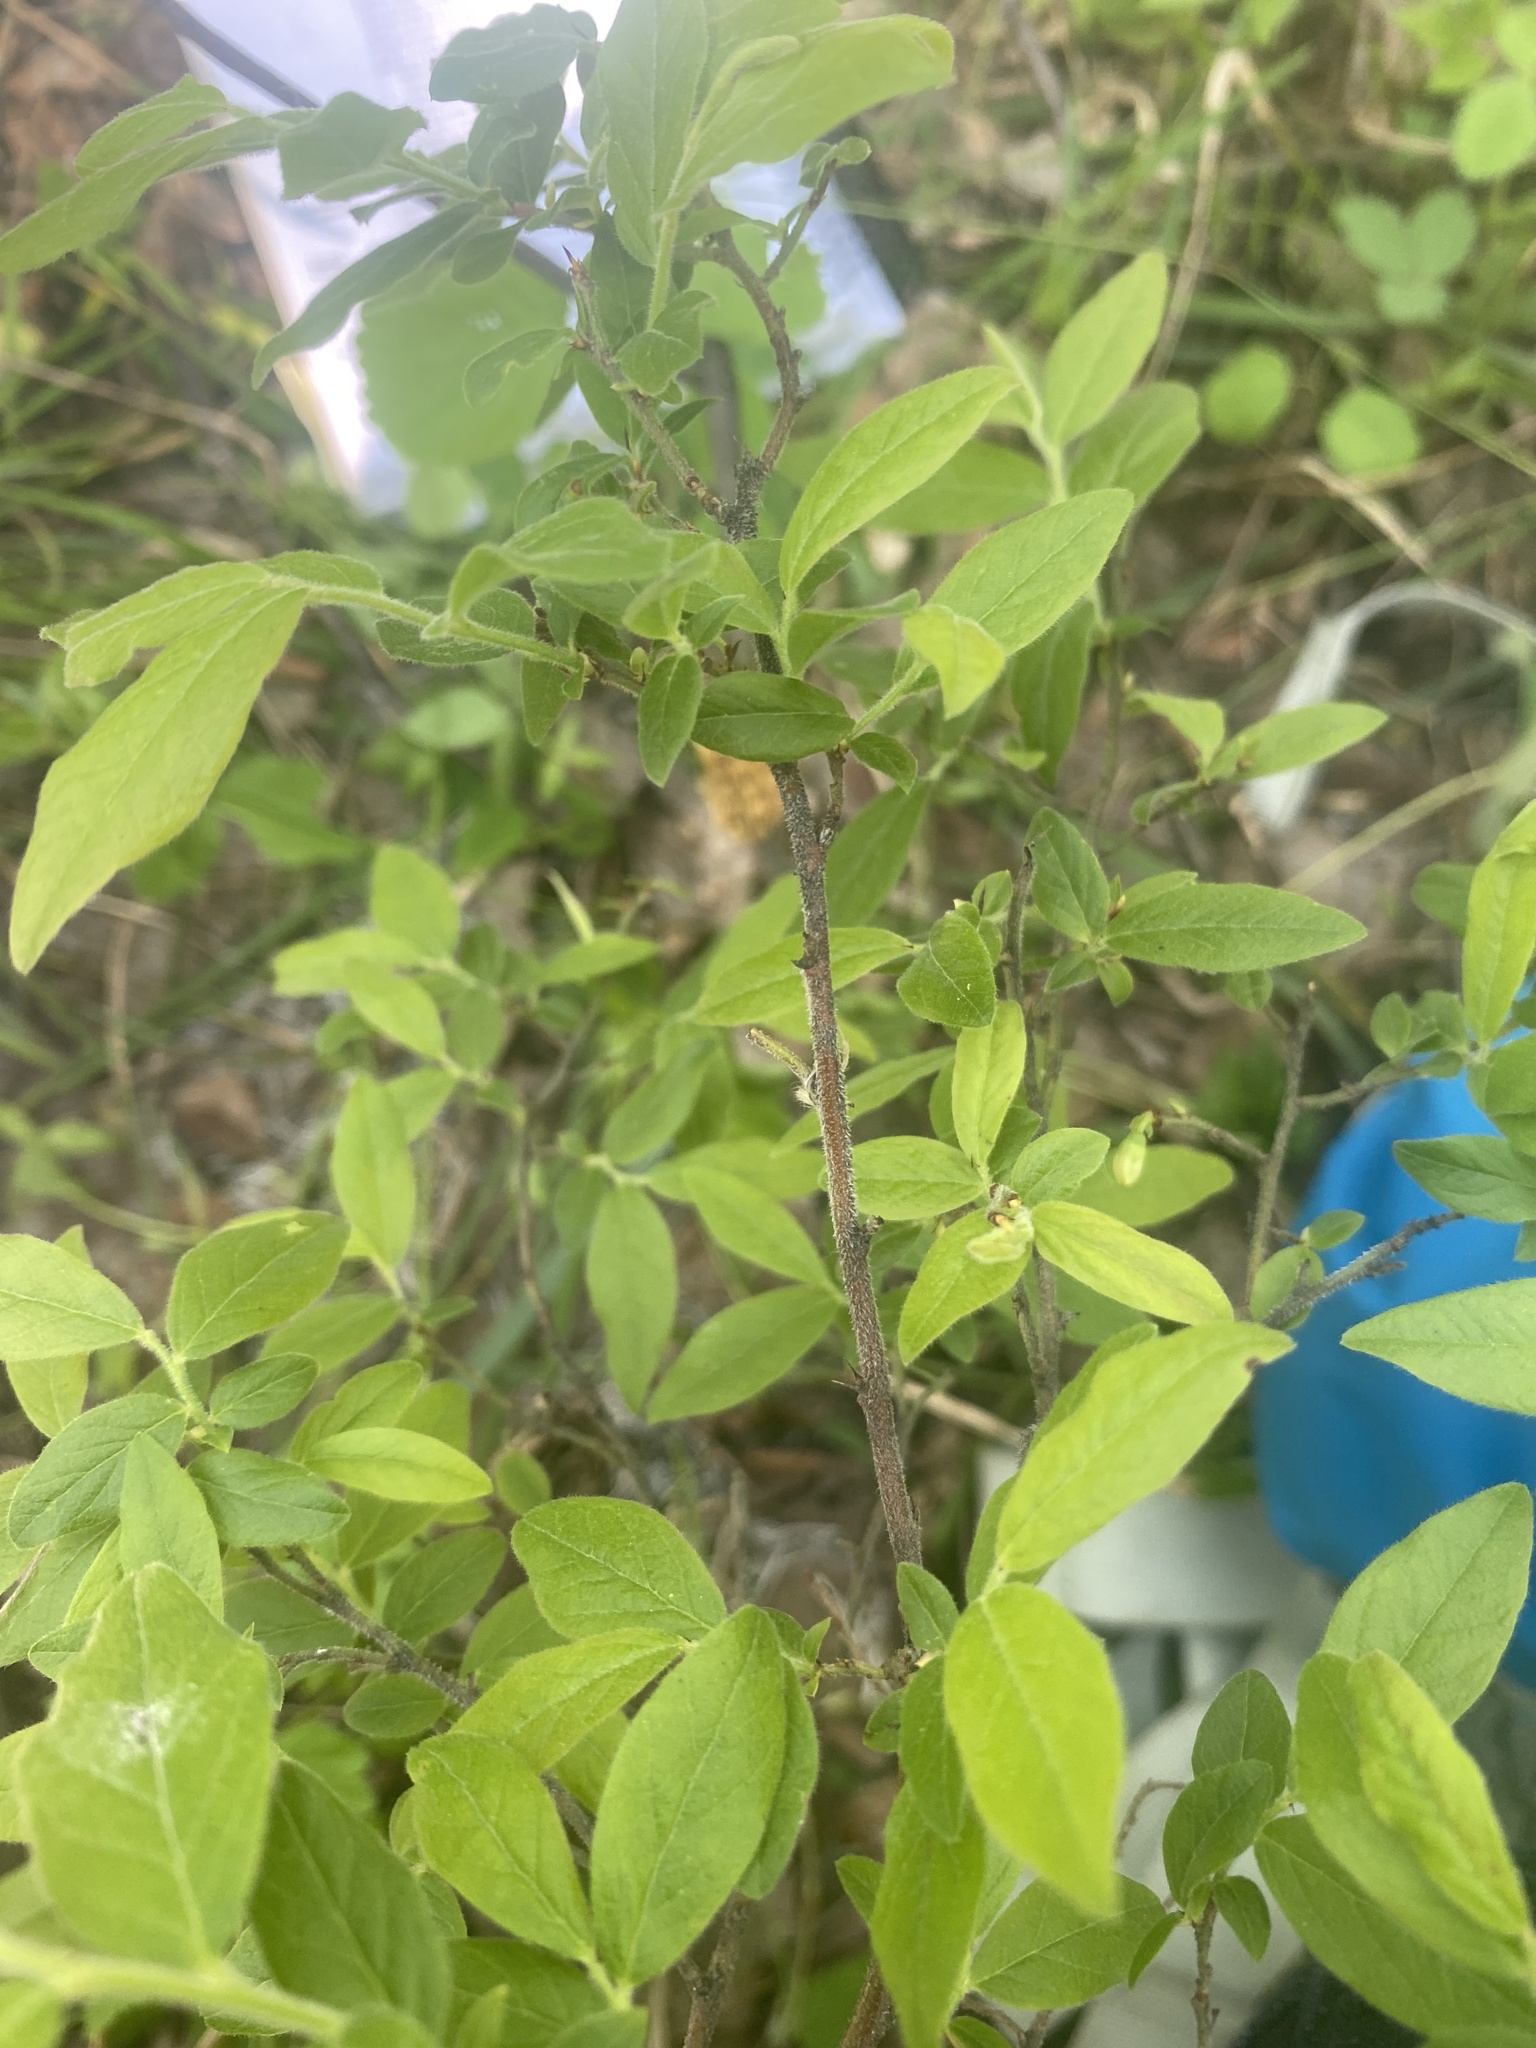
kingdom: Plantae
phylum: Tracheophyta
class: Magnoliopsida
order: Ericales
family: Ericaceae
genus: Vaccinium
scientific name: Vaccinium myrtilloides
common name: Canada blueberry
